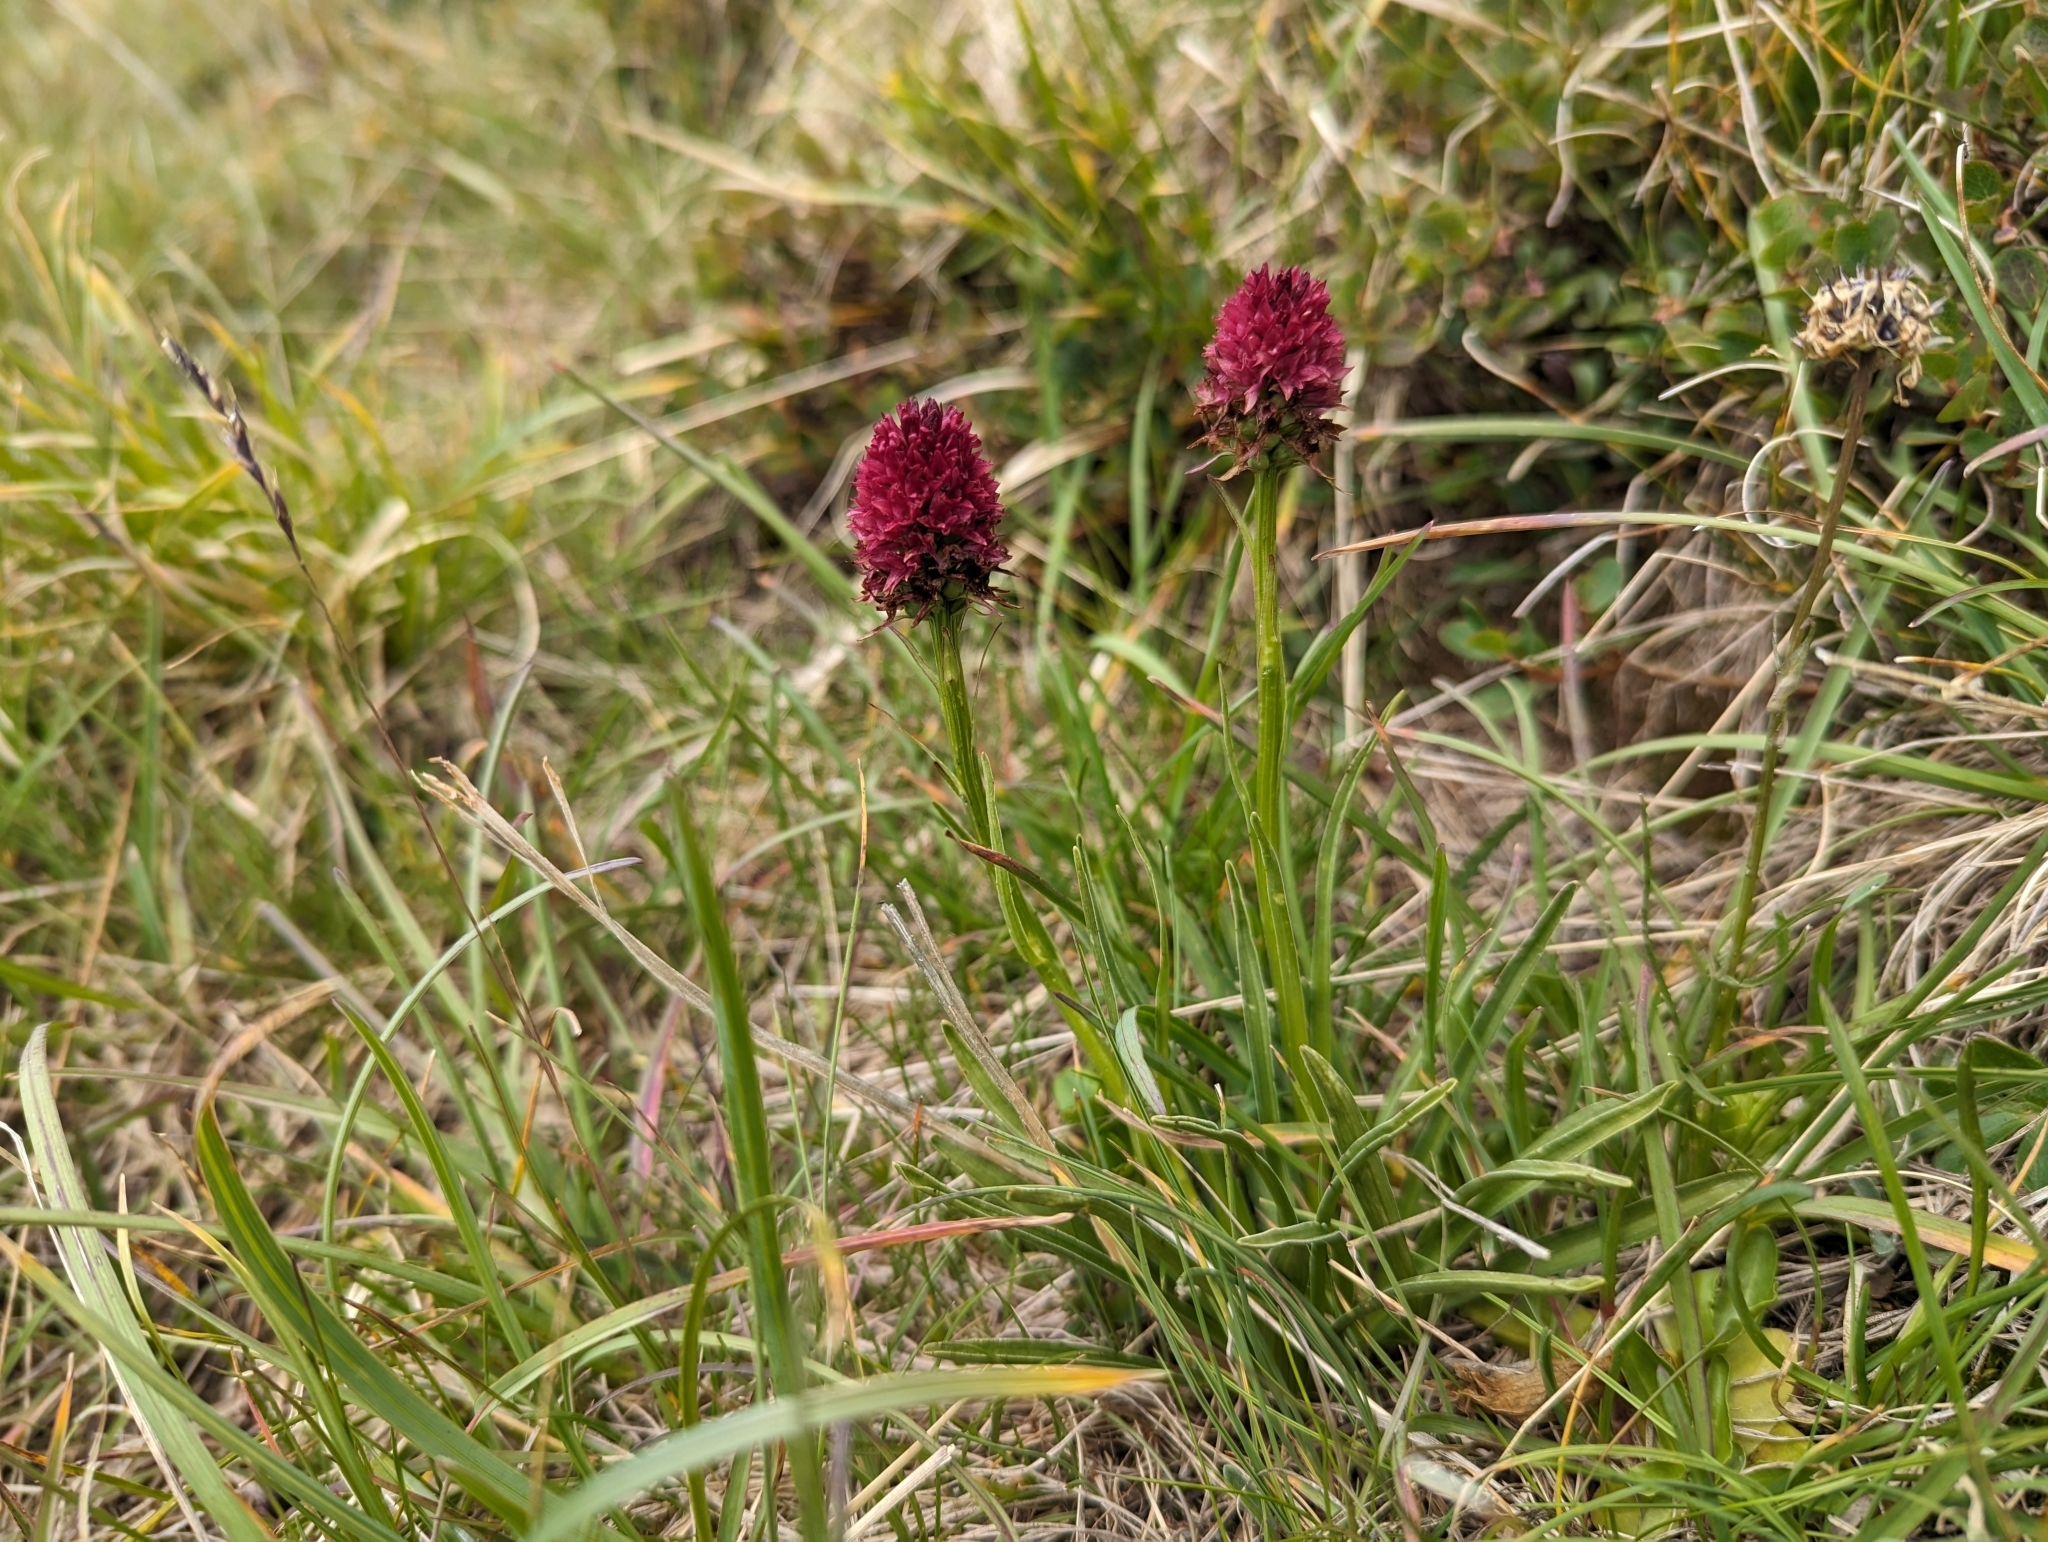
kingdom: Plantae
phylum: Tracheophyta
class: Liliopsida
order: Asparagales
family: Orchidaceae
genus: Gymnadenia
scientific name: Gymnadenia rhellicani
